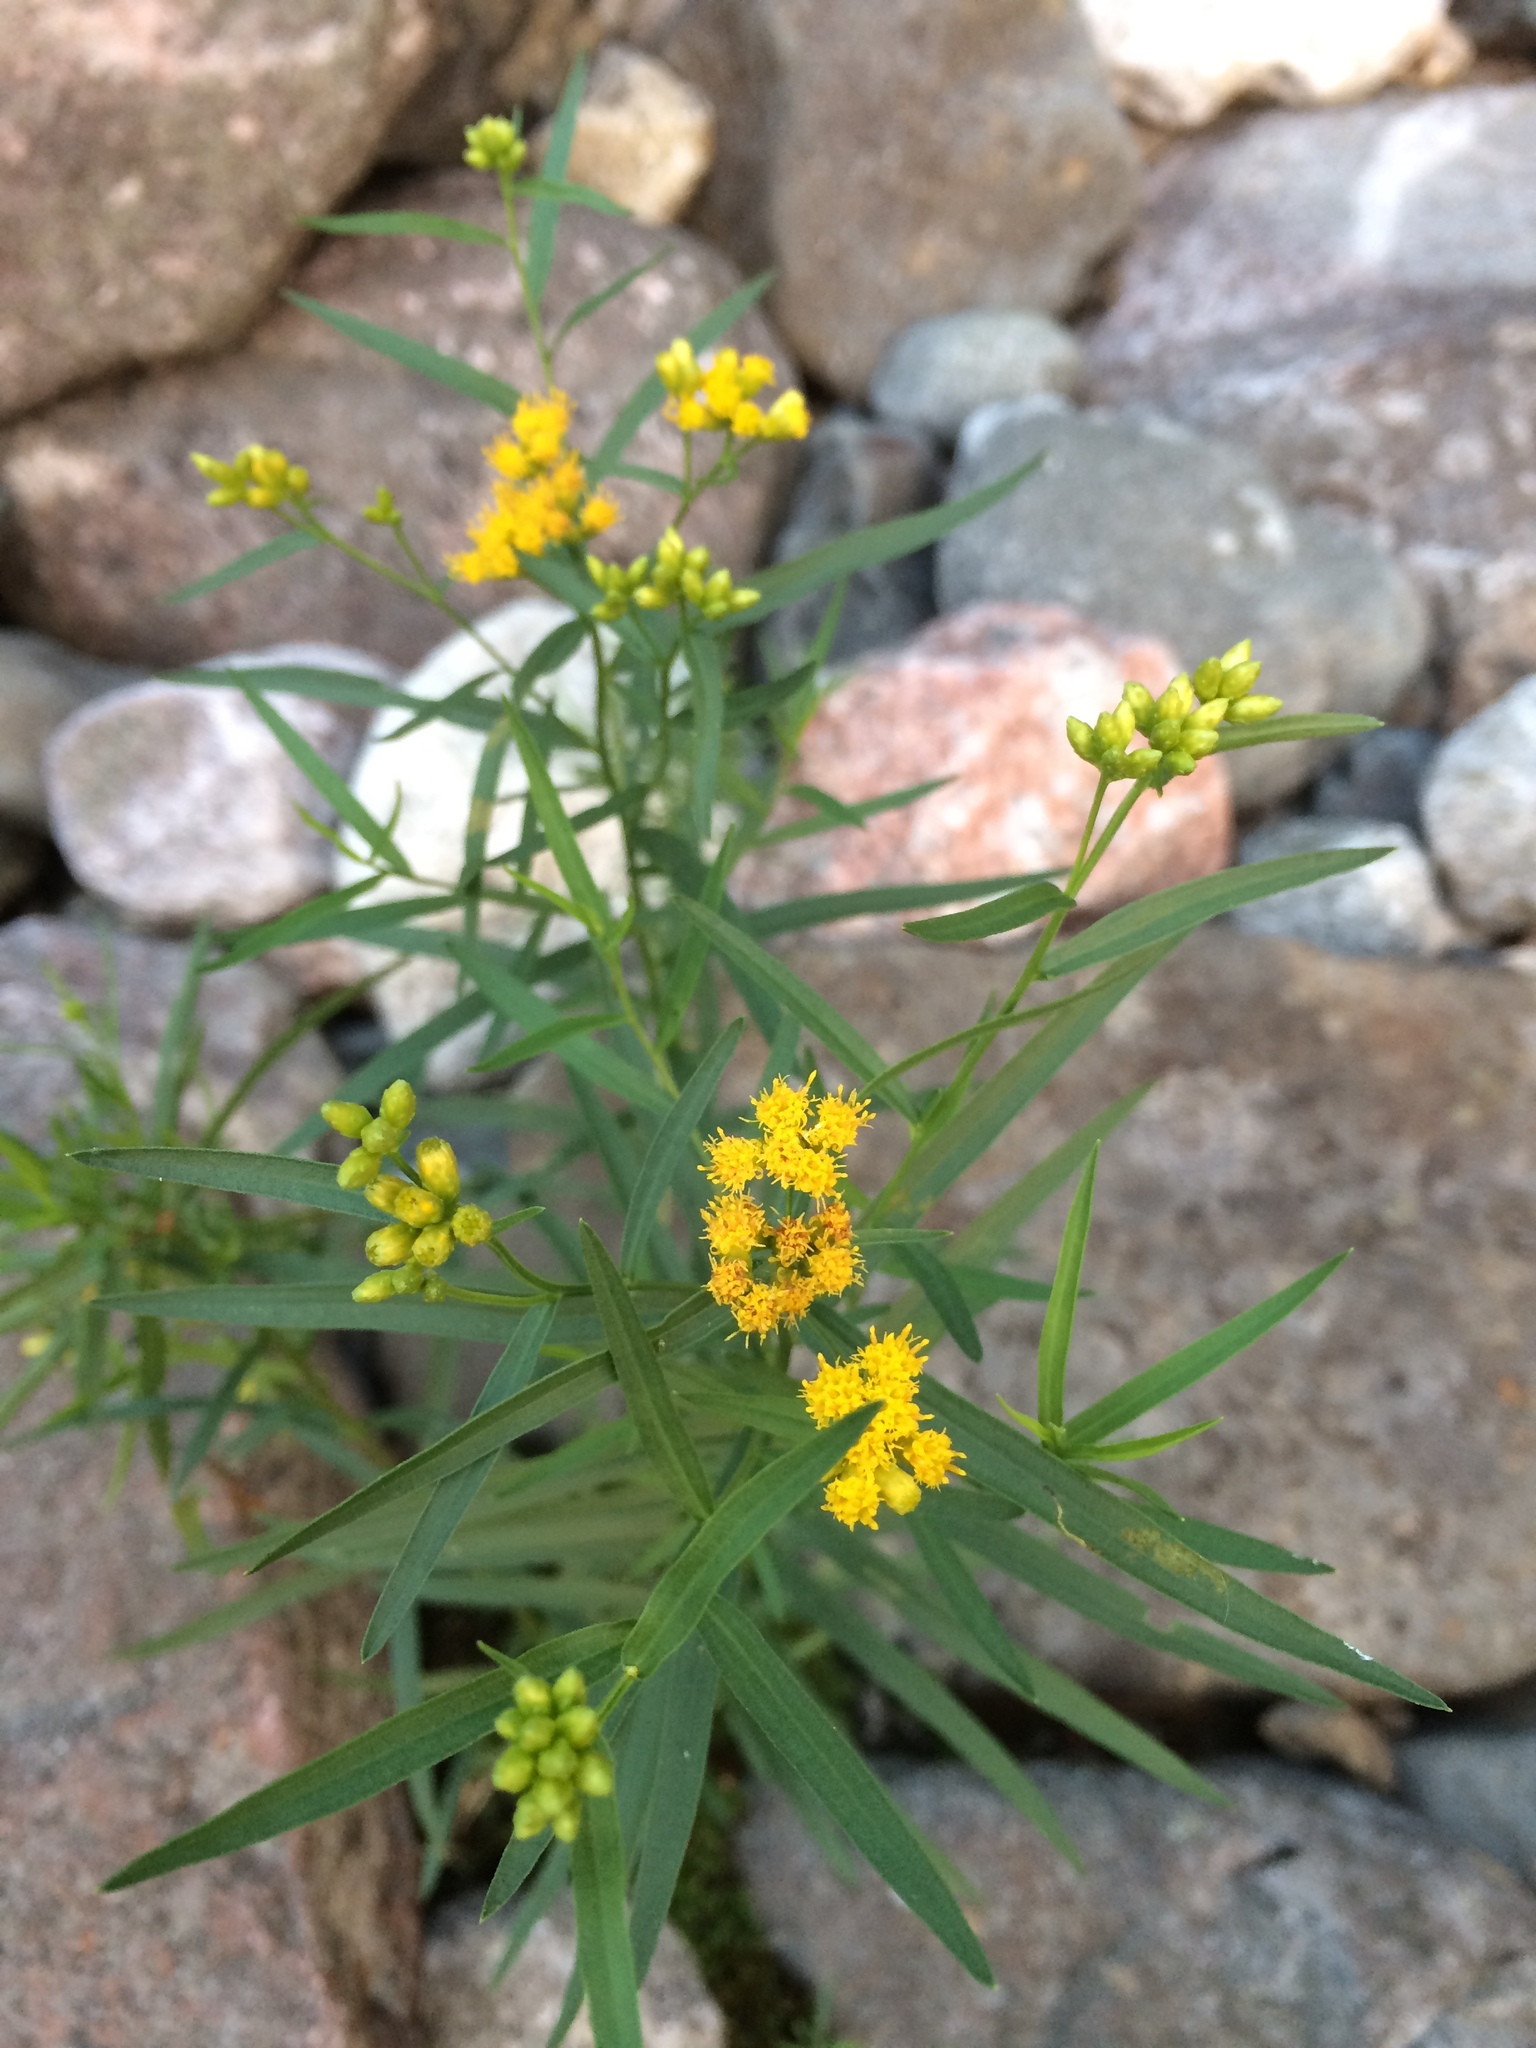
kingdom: Plantae
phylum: Tracheophyta
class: Magnoliopsida
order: Asterales
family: Asteraceae
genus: Euthamia
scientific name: Euthamia graminifolia
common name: Common goldentop
